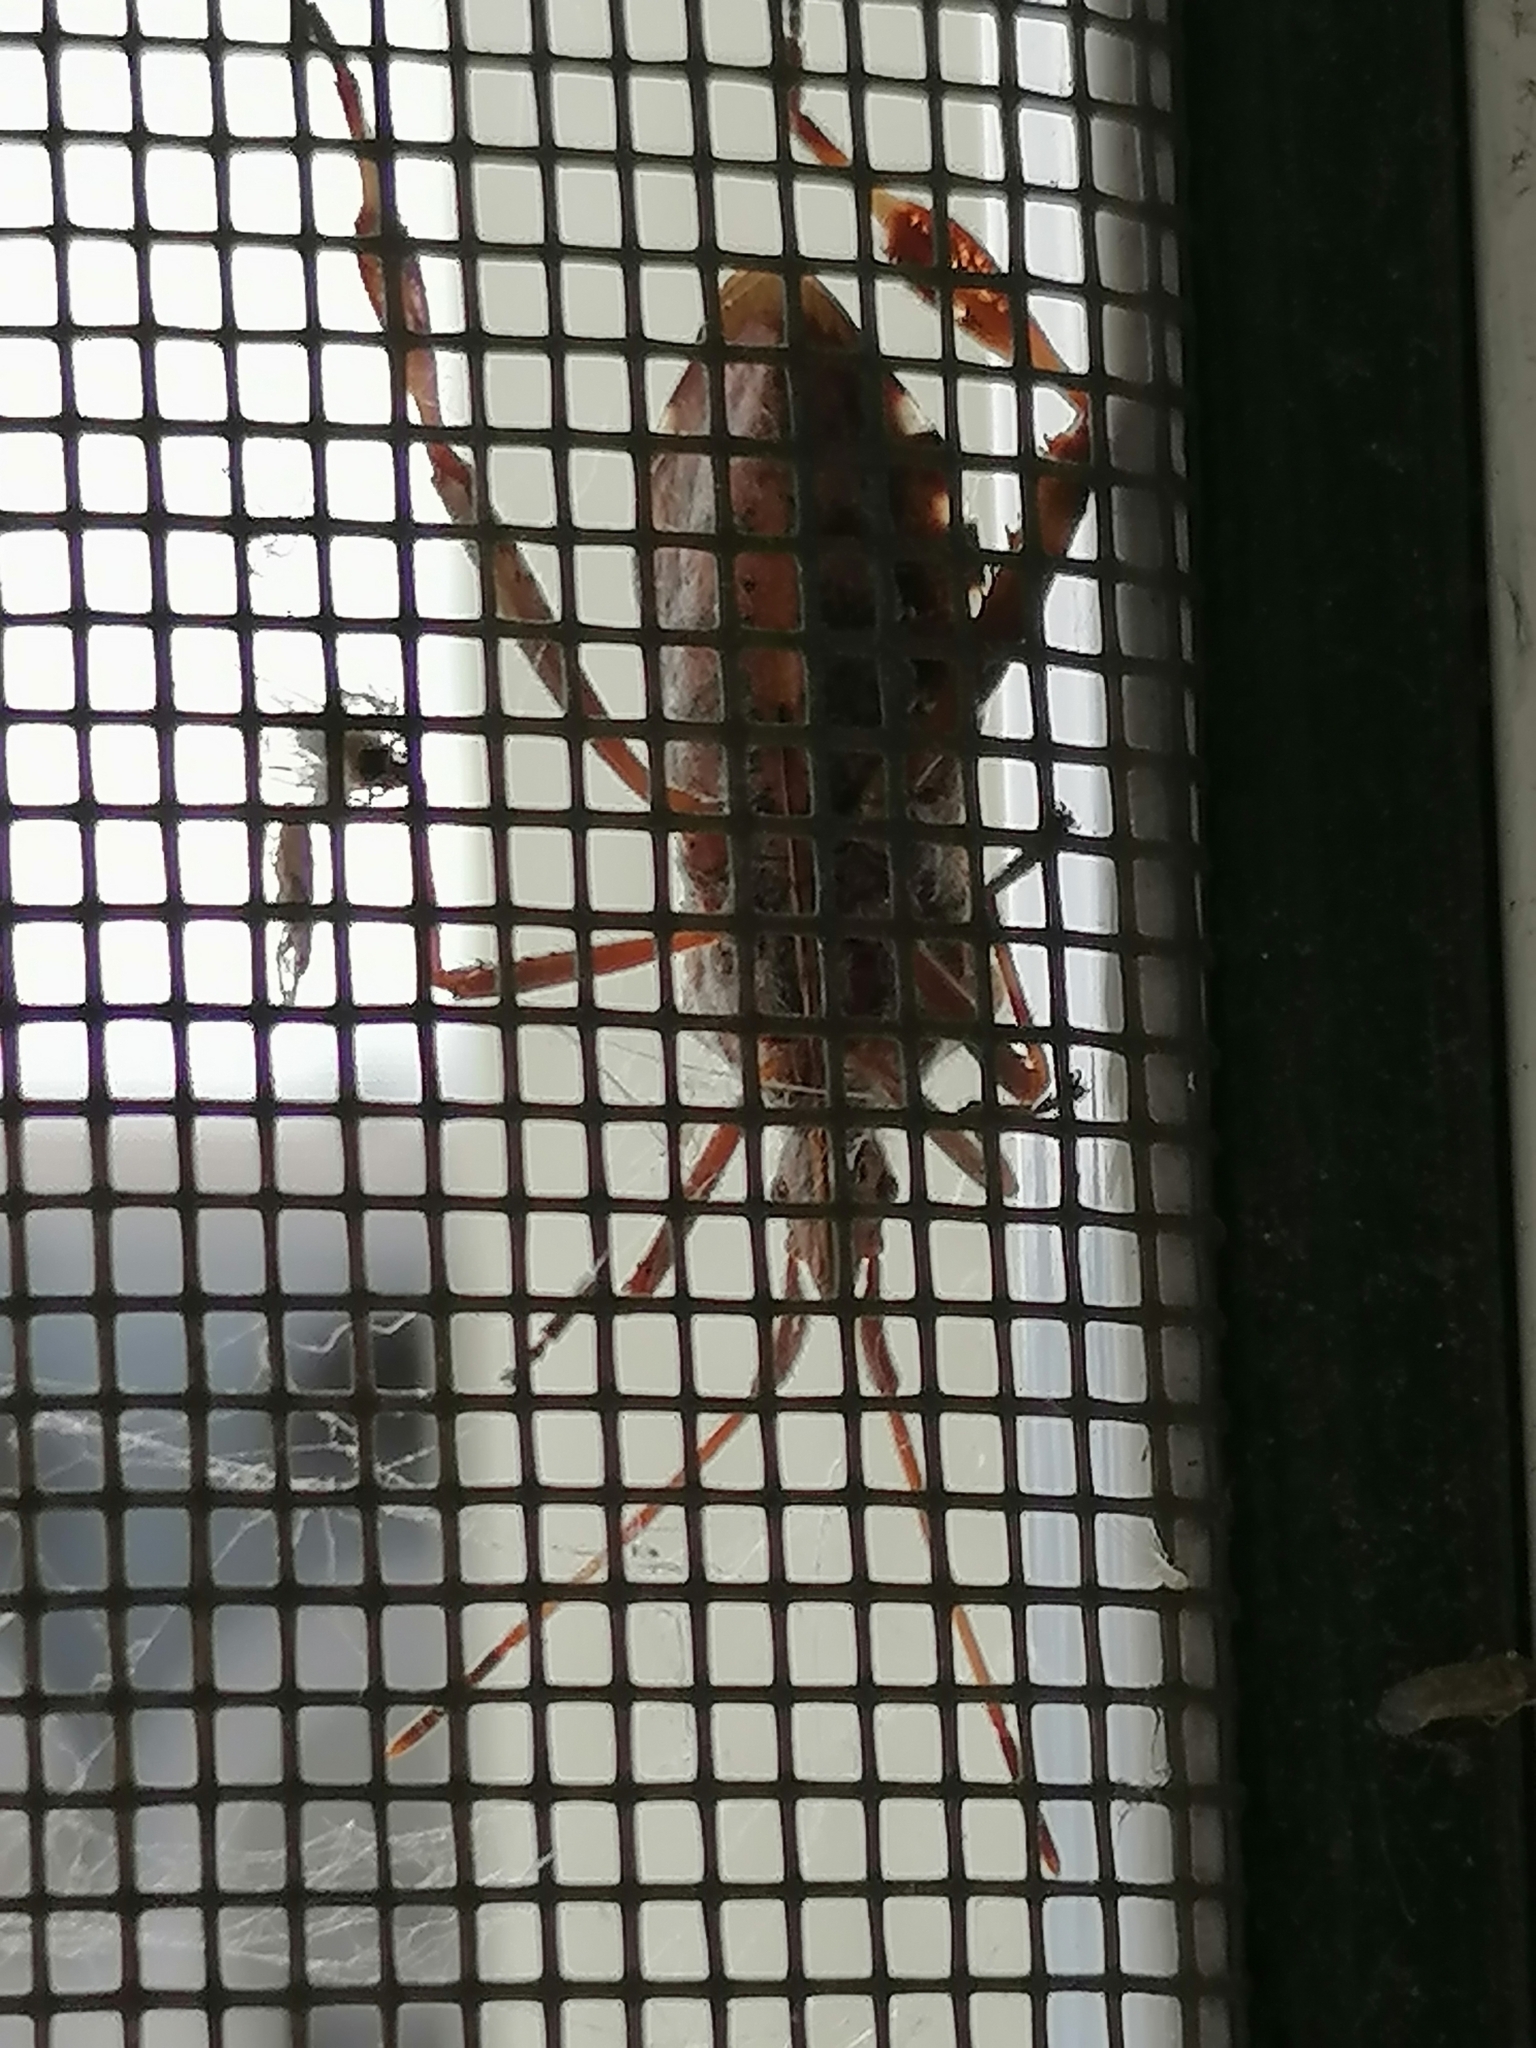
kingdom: Animalia
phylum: Arthropoda
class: Insecta
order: Hemiptera
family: Coreidae
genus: Leptoglossus
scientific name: Leptoglossus occidentalis
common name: Western conifer-seed bug
